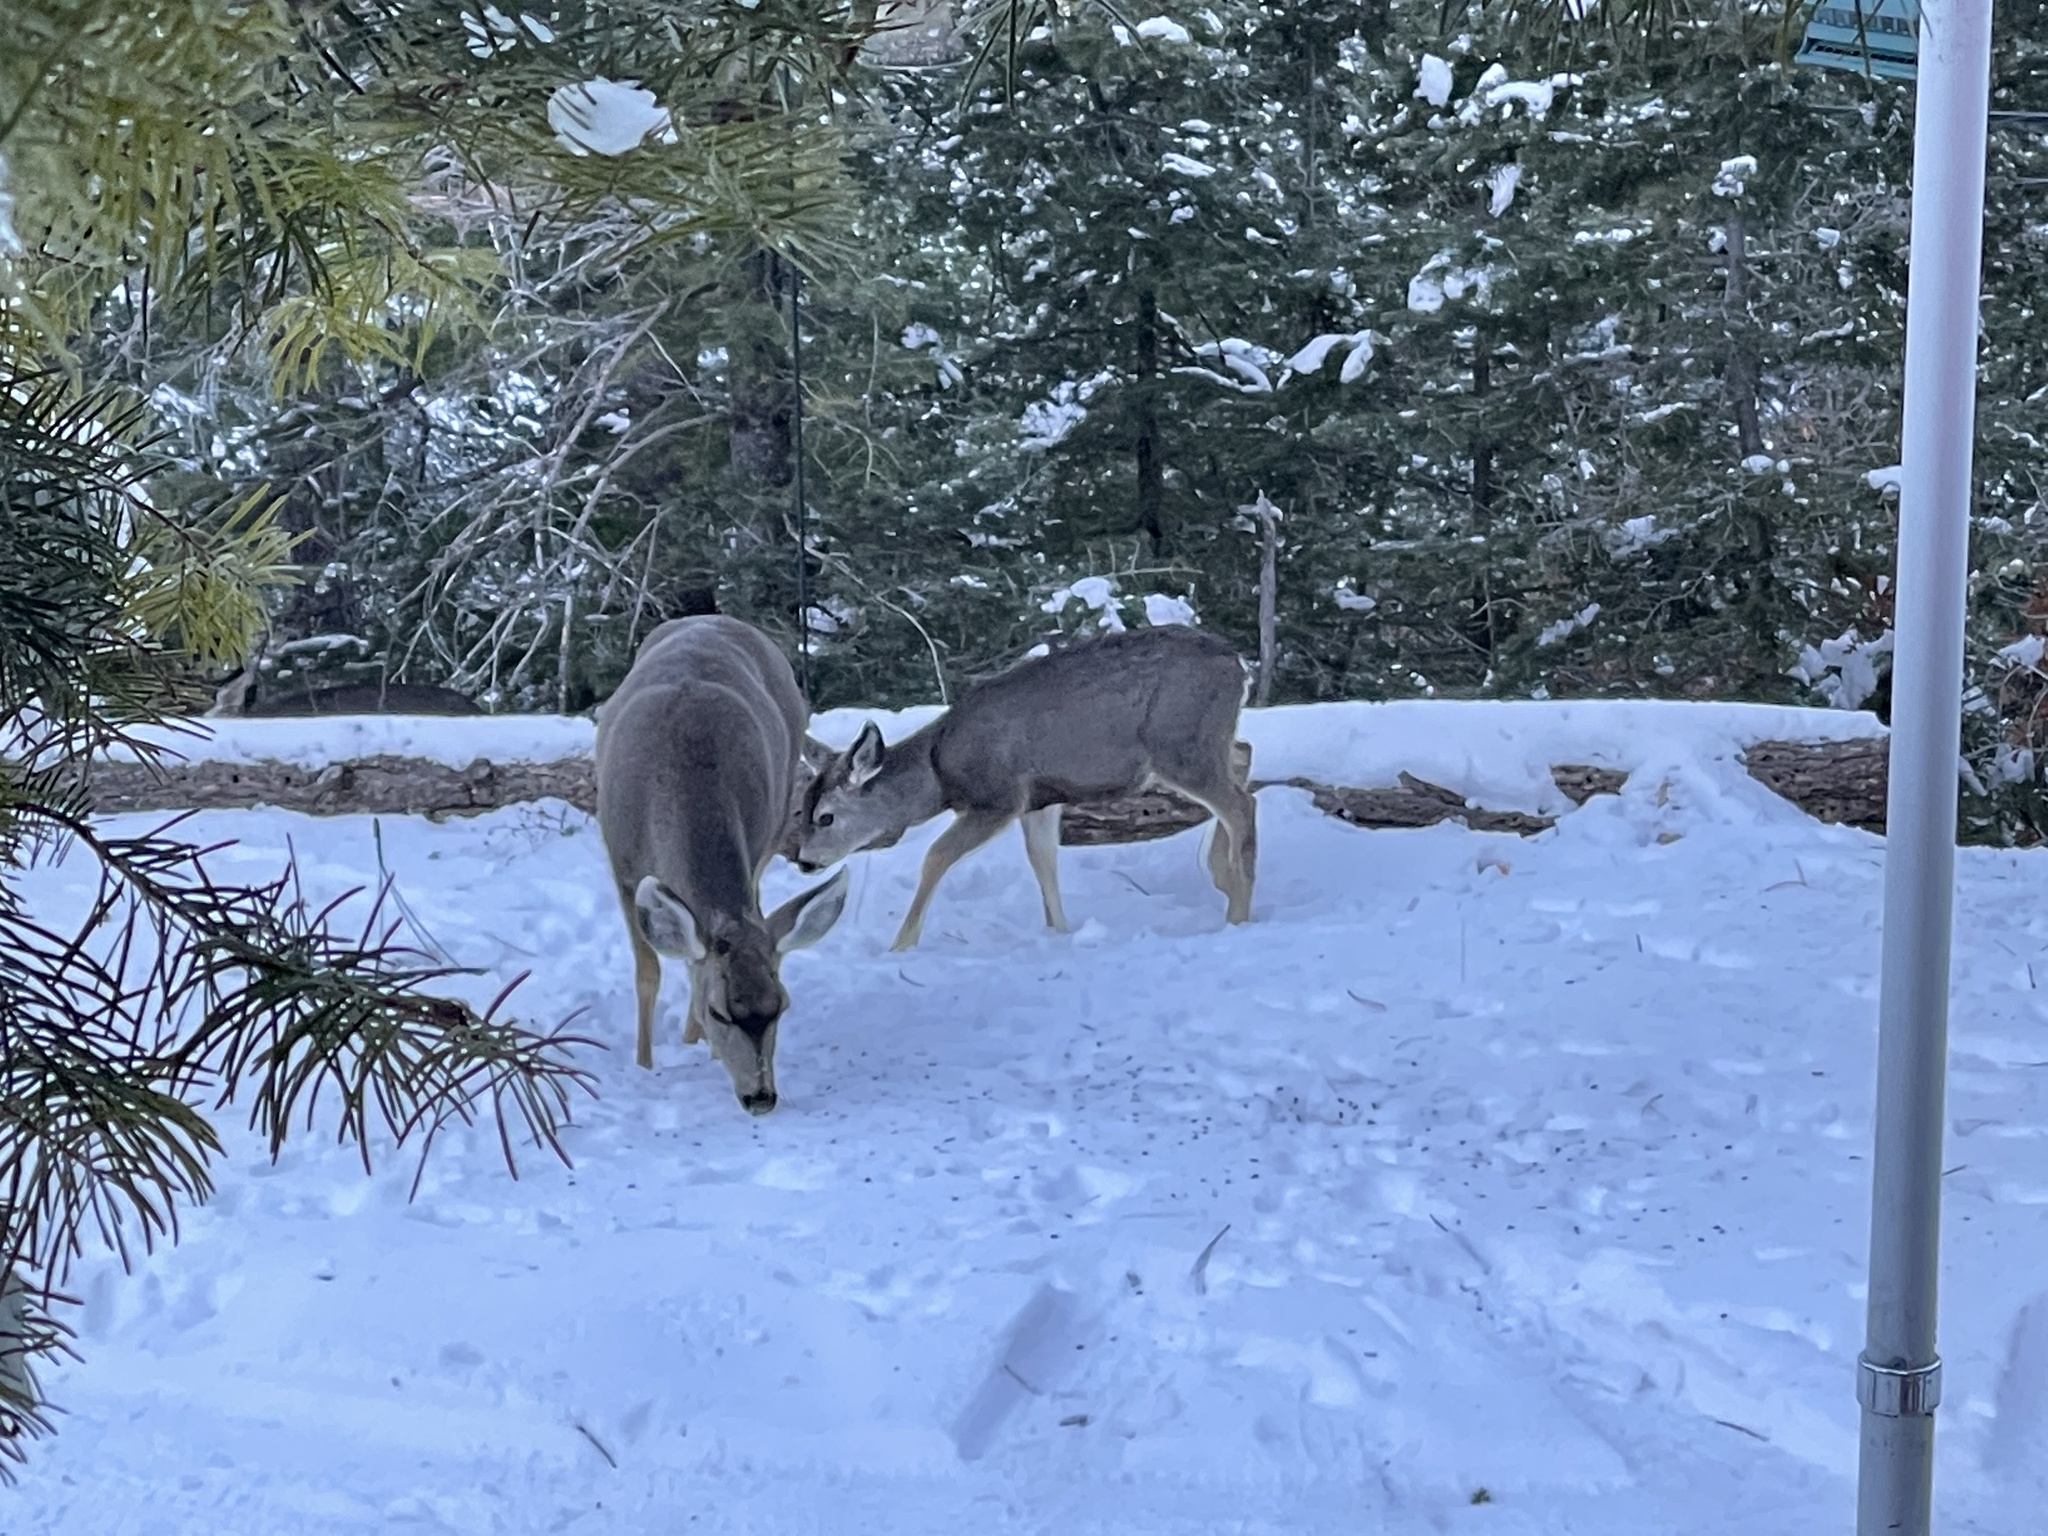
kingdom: Animalia
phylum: Chordata
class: Mammalia
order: Artiodactyla
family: Cervidae
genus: Odocoileus
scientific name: Odocoileus hemionus
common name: Mule deer
